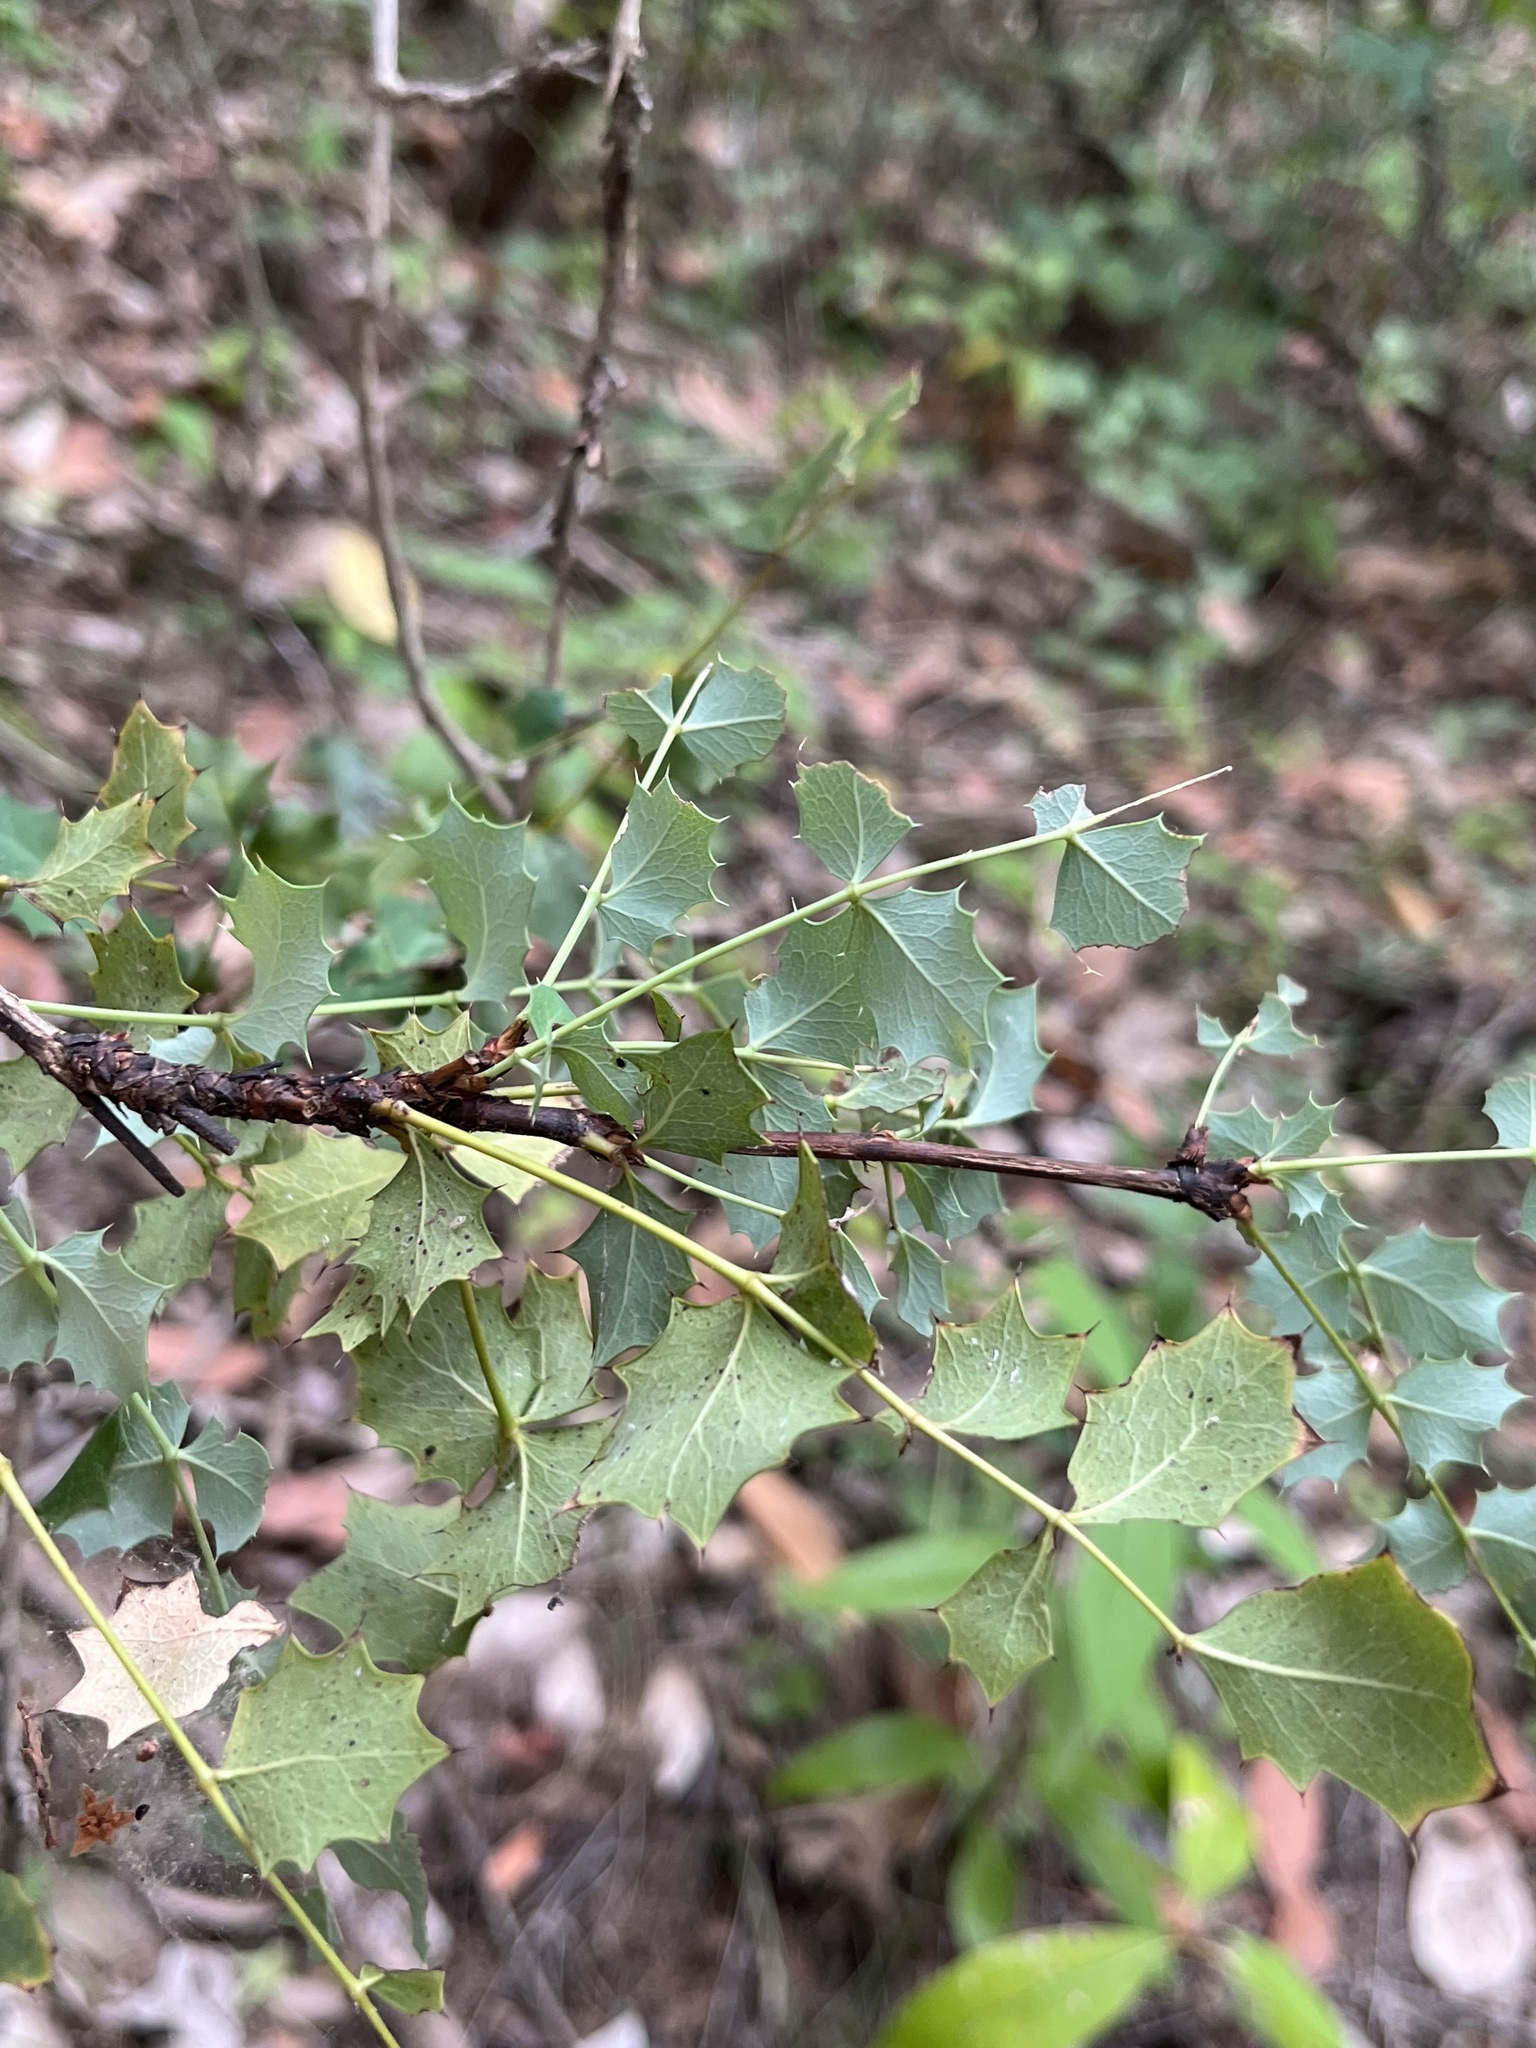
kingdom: Plantae
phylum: Tracheophyta
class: Magnoliopsida
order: Ranunculales
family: Berberidaceae
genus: Berberis
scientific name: Berberis swaseyi
